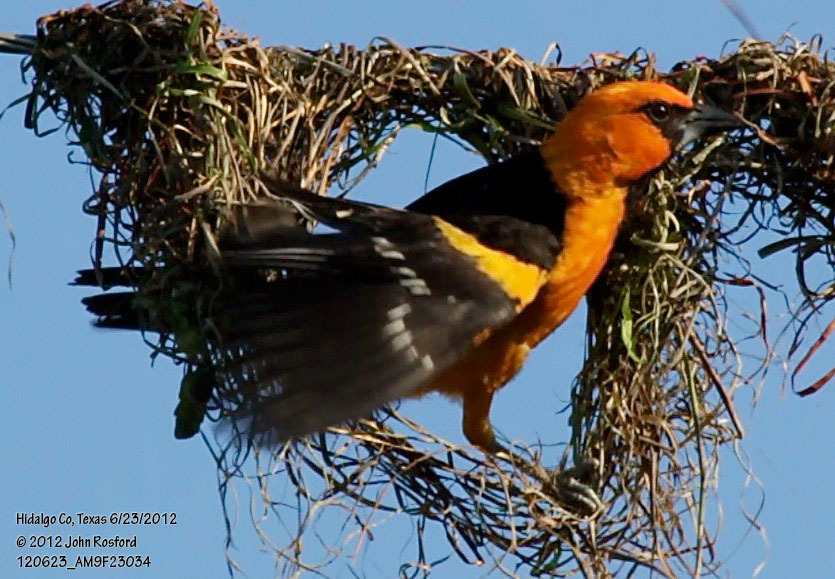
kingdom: Animalia
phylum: Chordata
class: Aves
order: Passeriformes
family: Icteridae
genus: Icterus
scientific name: Icterus gularis
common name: Altamira oriole
